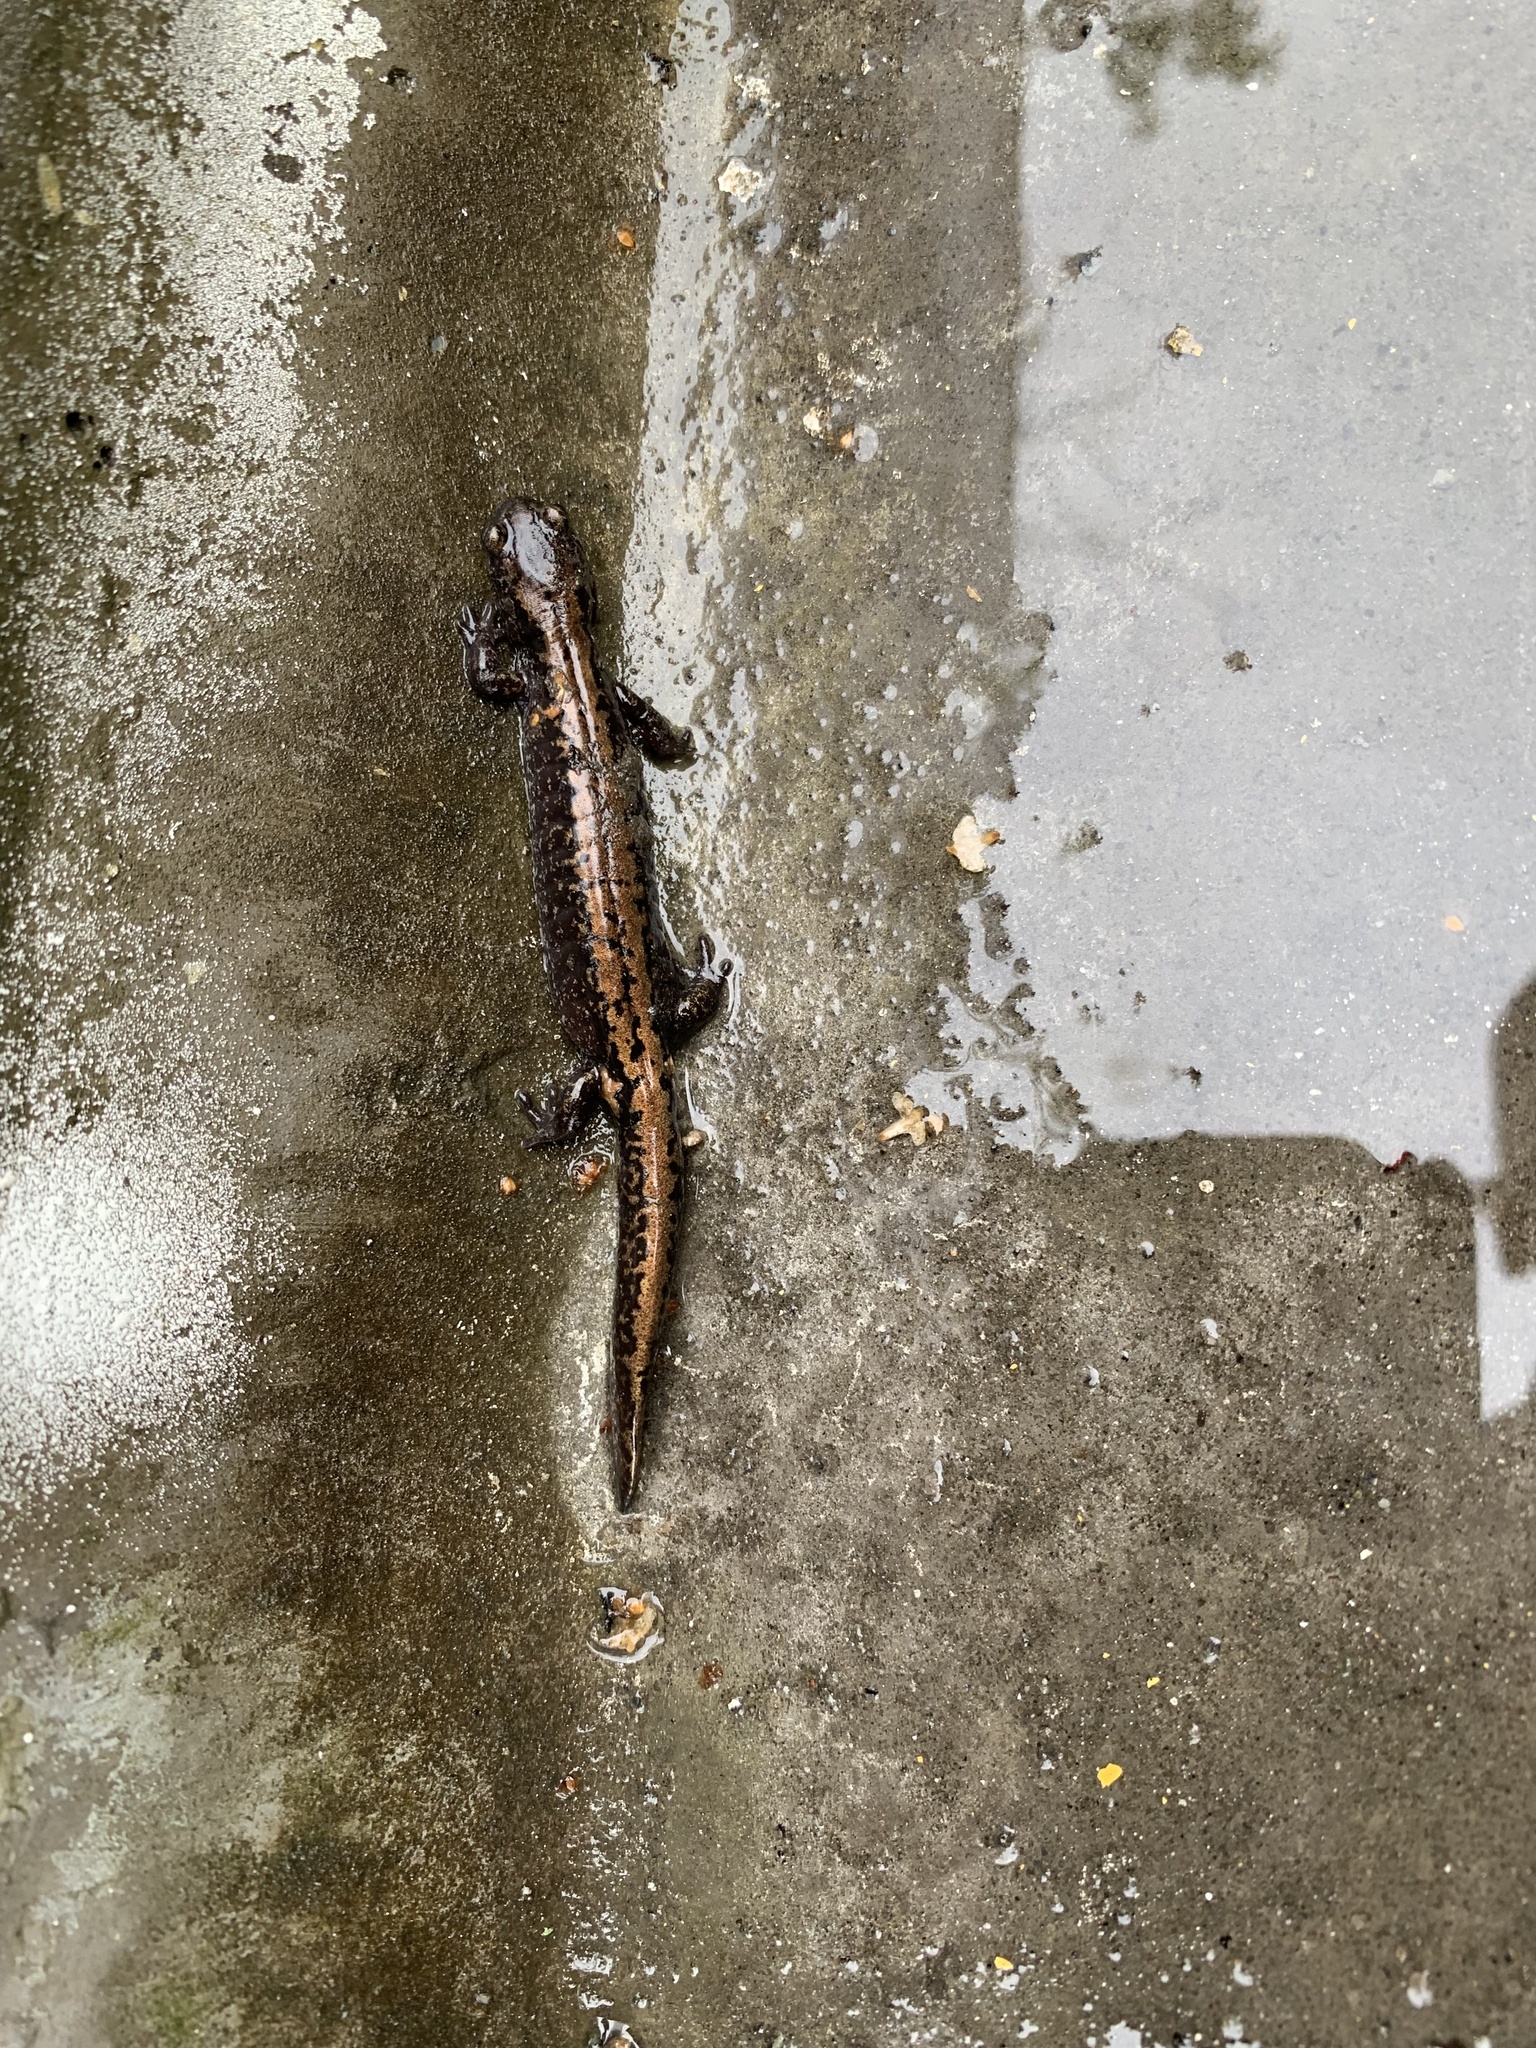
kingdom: Animalia
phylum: Chordata
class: Amphibia
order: Caudata
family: Hynobiidae
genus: Salamandrella
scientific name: Salamandrella keyserlingii
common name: Dybowski's salamander
